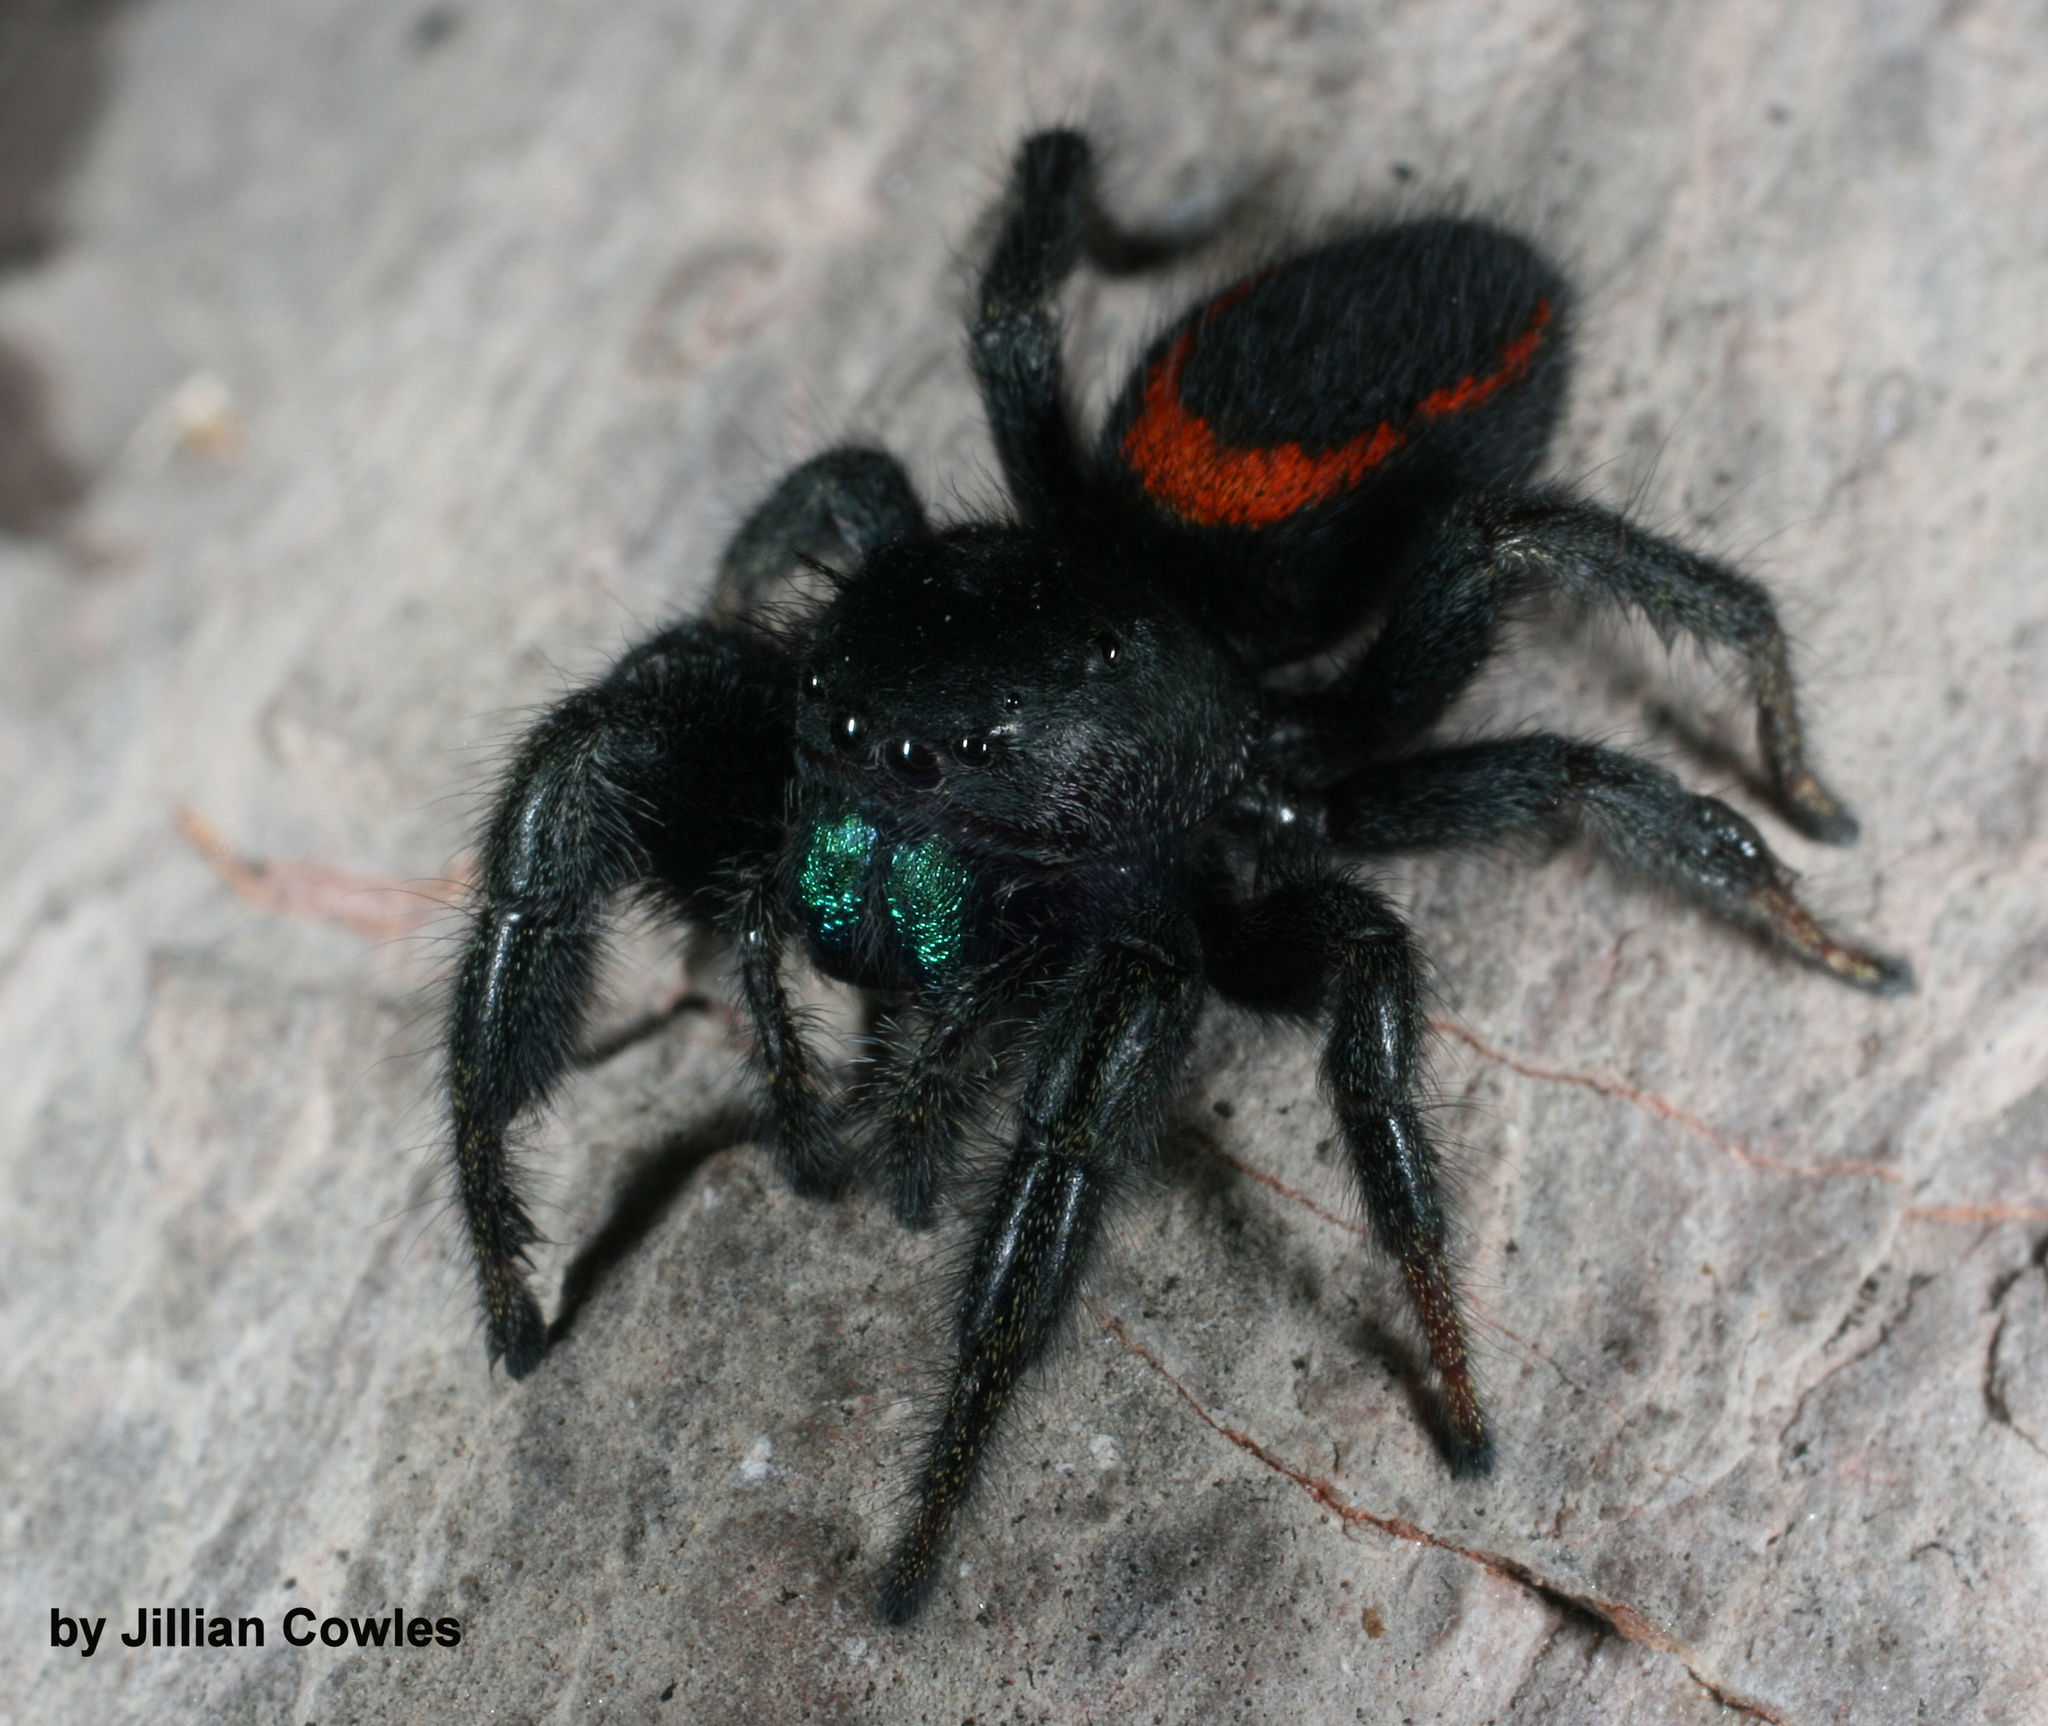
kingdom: Animalia
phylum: Arthropoda
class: Arachnida
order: Araneae
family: Salticidae
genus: Phidippus
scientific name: Phidippus ardens
